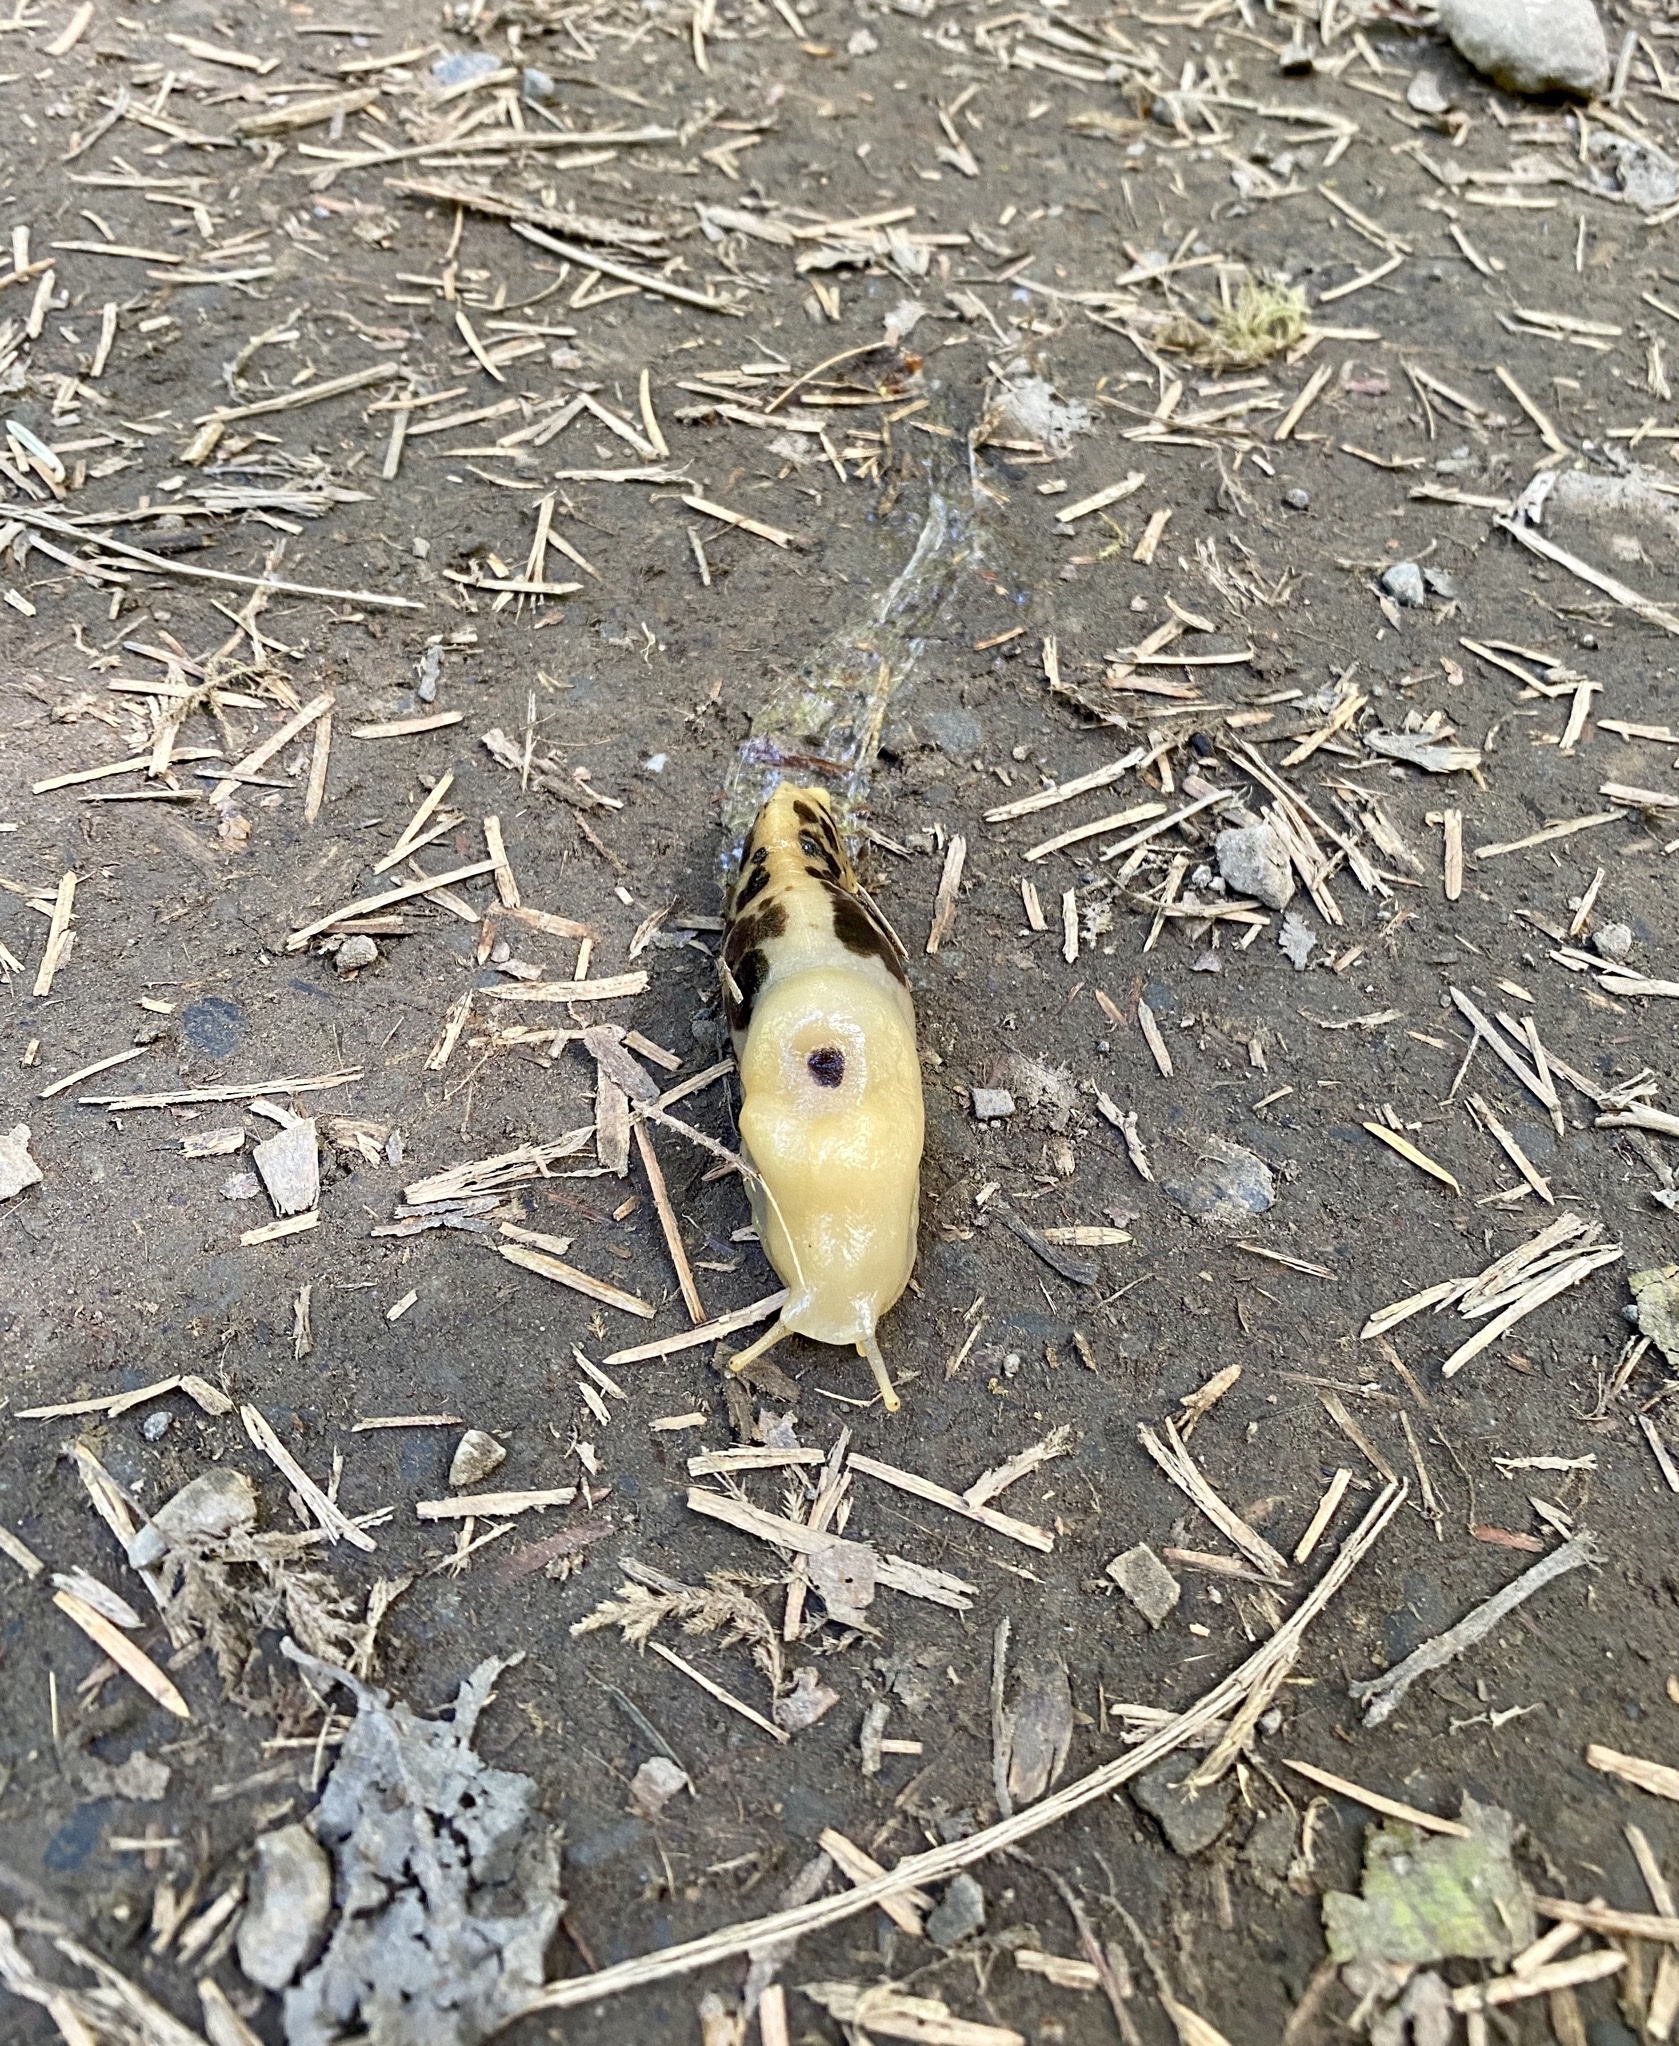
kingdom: Animalia
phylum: Mollusca
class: Gastropoda
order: Stylommatophora
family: Ariolimacidae
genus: Ariolimax
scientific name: Ariolimax columbianus
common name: Pacific banana slug
